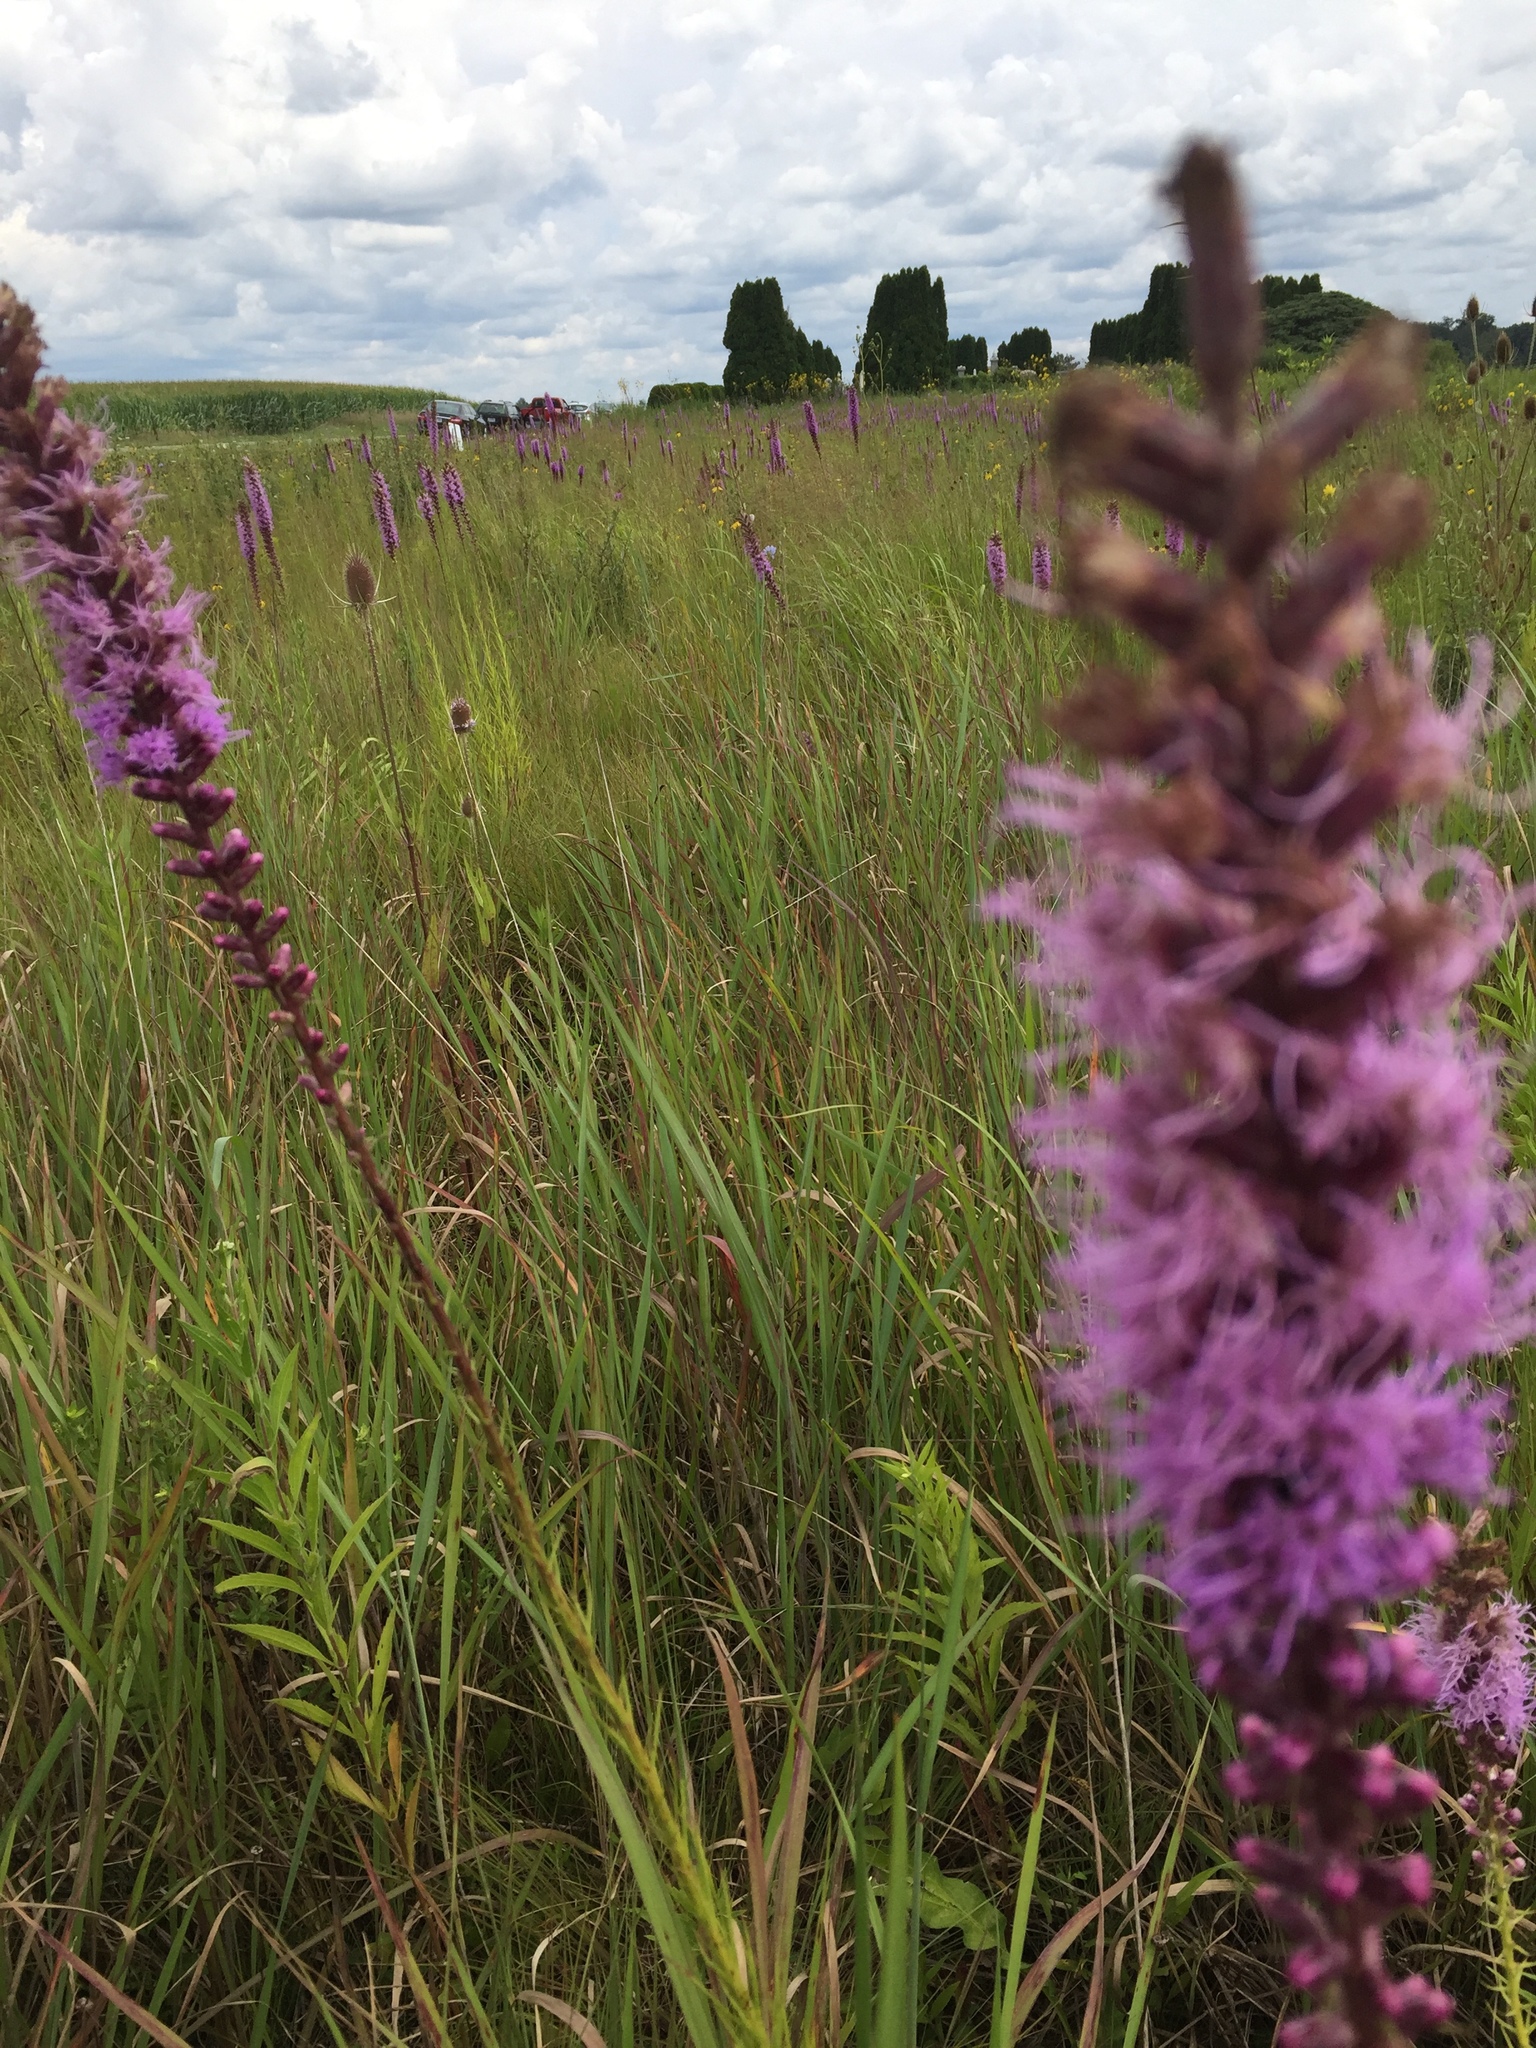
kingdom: Plantae
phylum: Tracheophyta
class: Magnoliopsida
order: Asterales
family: Asteraceae
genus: Liatris
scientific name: Liatris spicata
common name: Florist gayfeather
